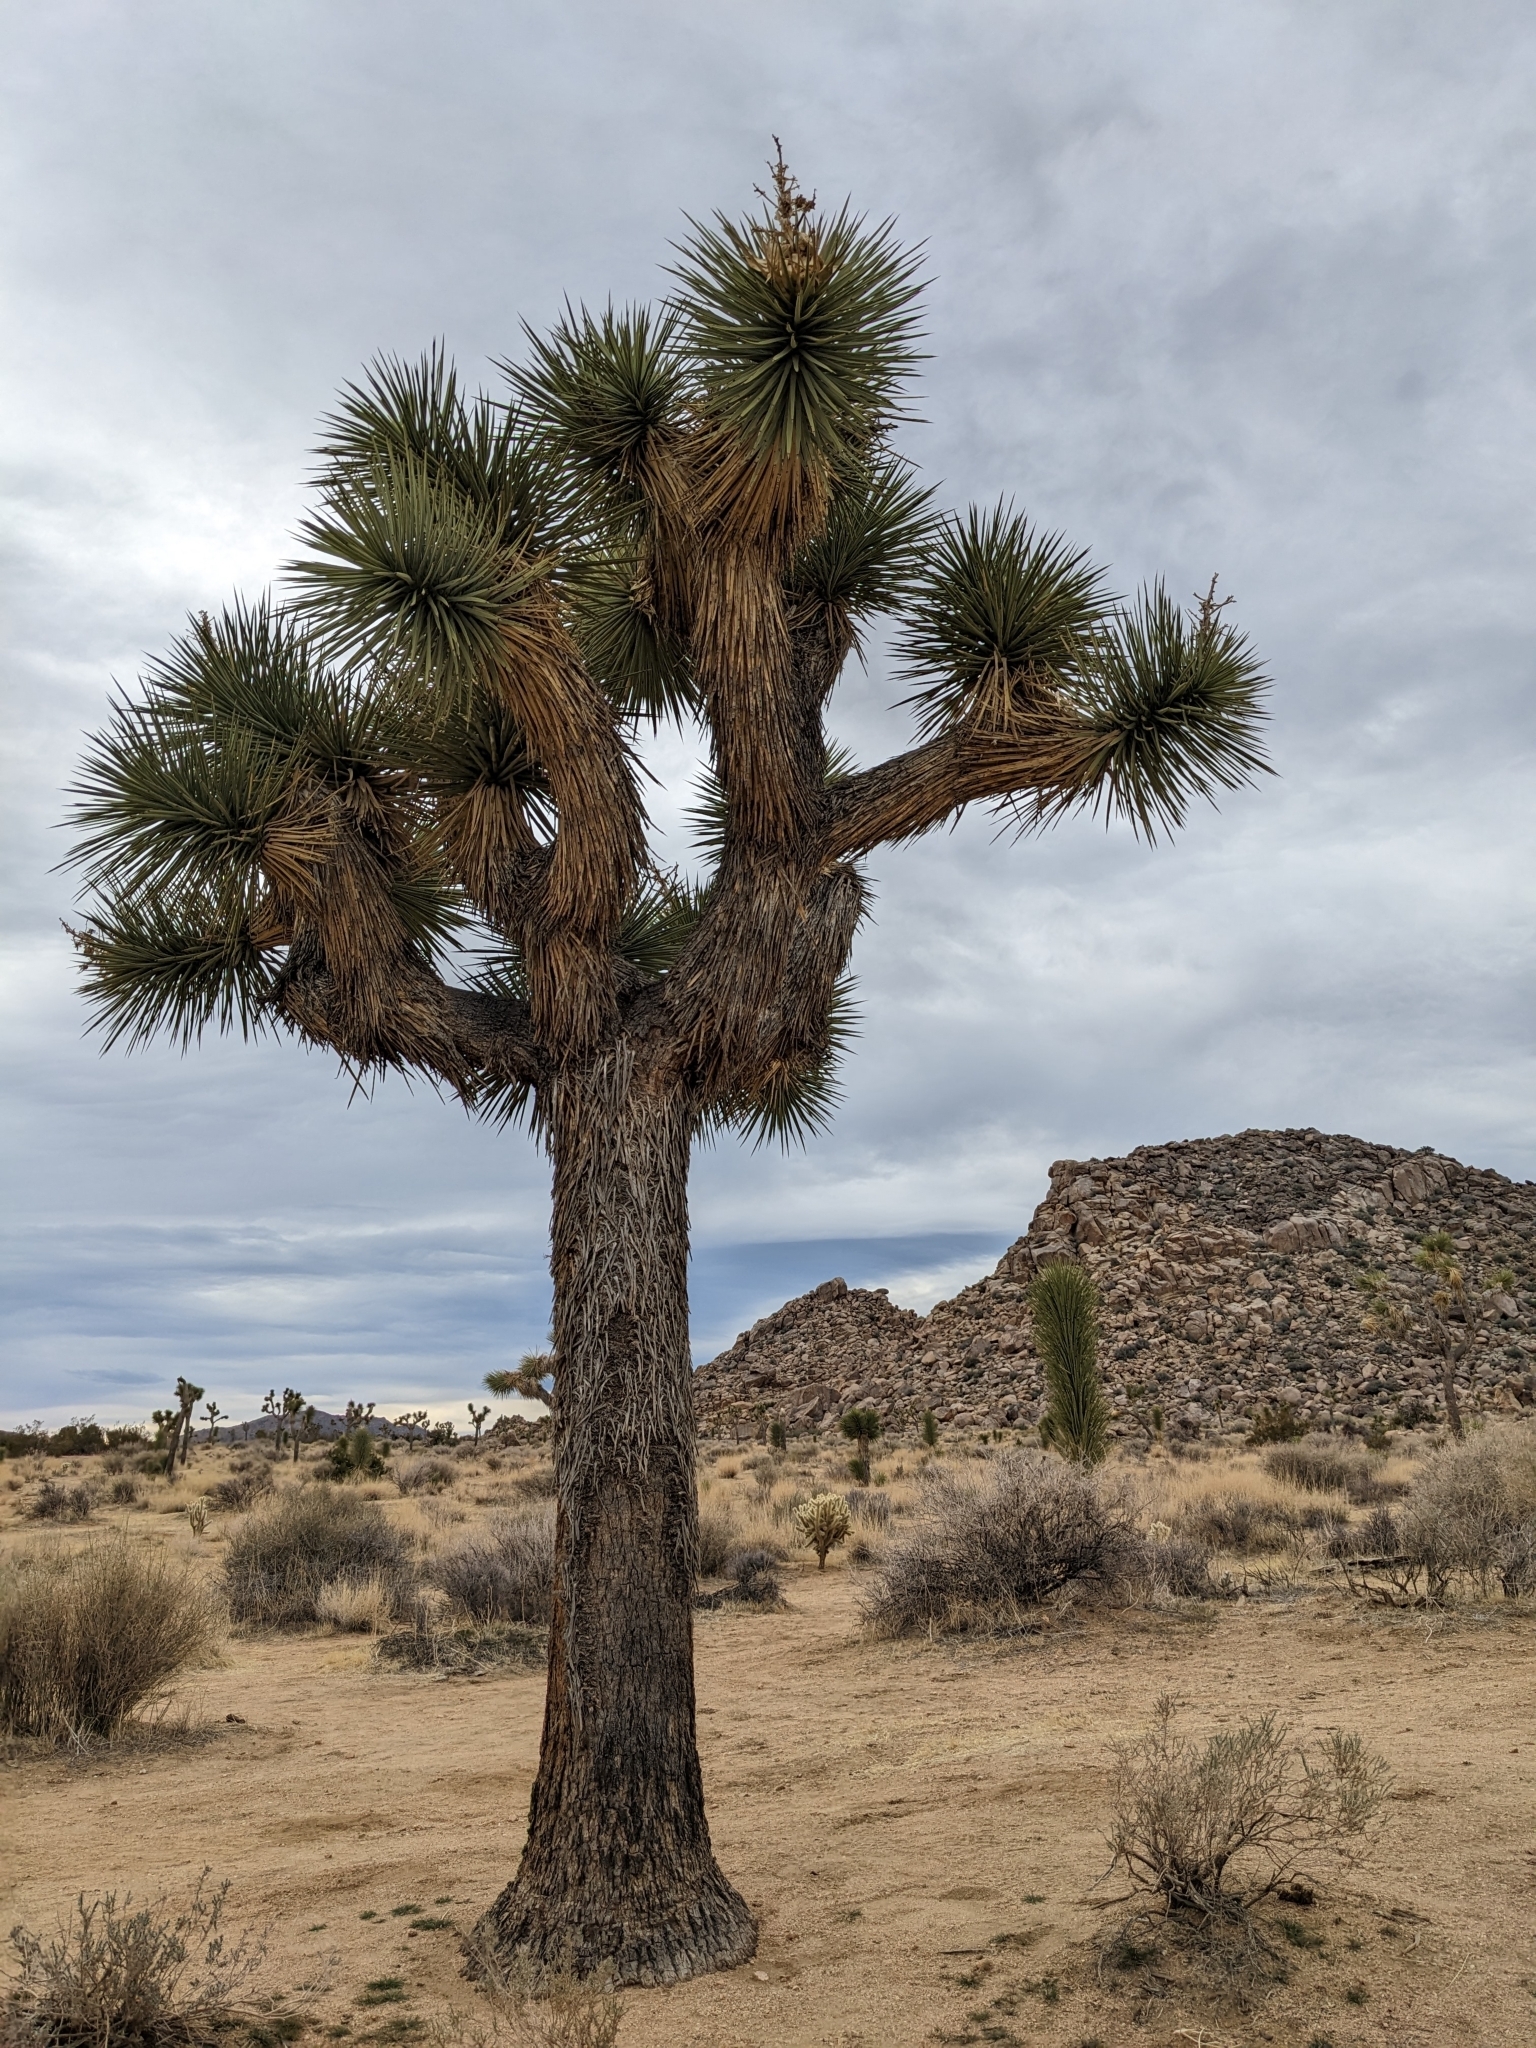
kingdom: Plantae
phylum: Tracheophyta
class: Liliopsida
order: Asparagales
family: Asparagaceae
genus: Yucca
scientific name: Yucca brevifolia
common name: Joshua tree
